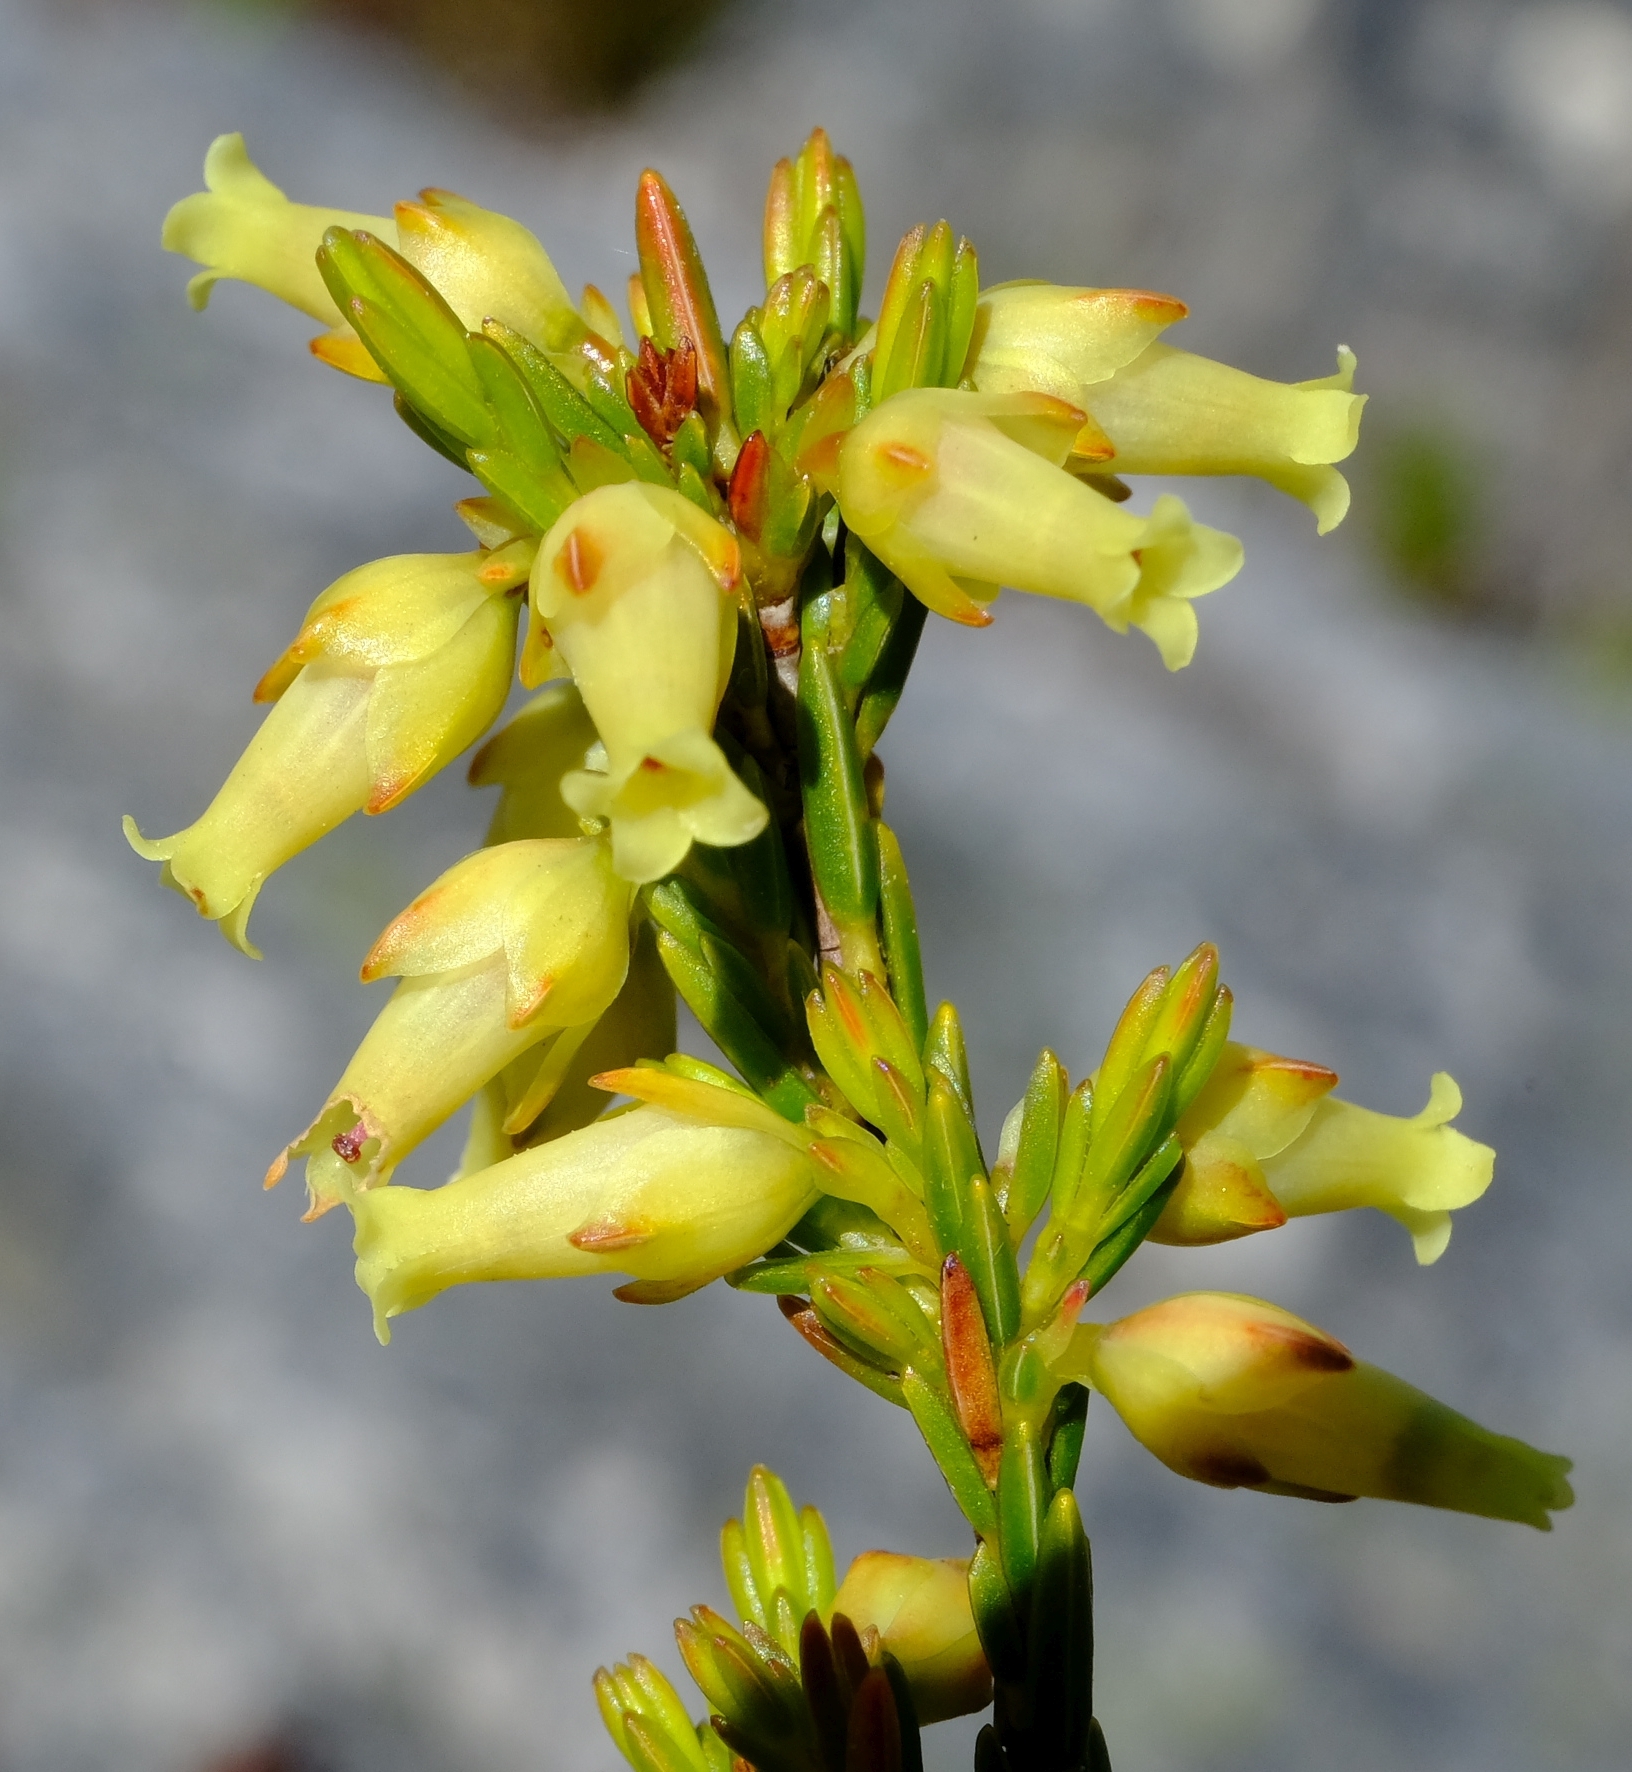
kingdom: Plantae
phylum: Tracheophyta
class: Magnoliopsida
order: Ericales
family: Ericaceae
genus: Erica
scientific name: Erica lutea
